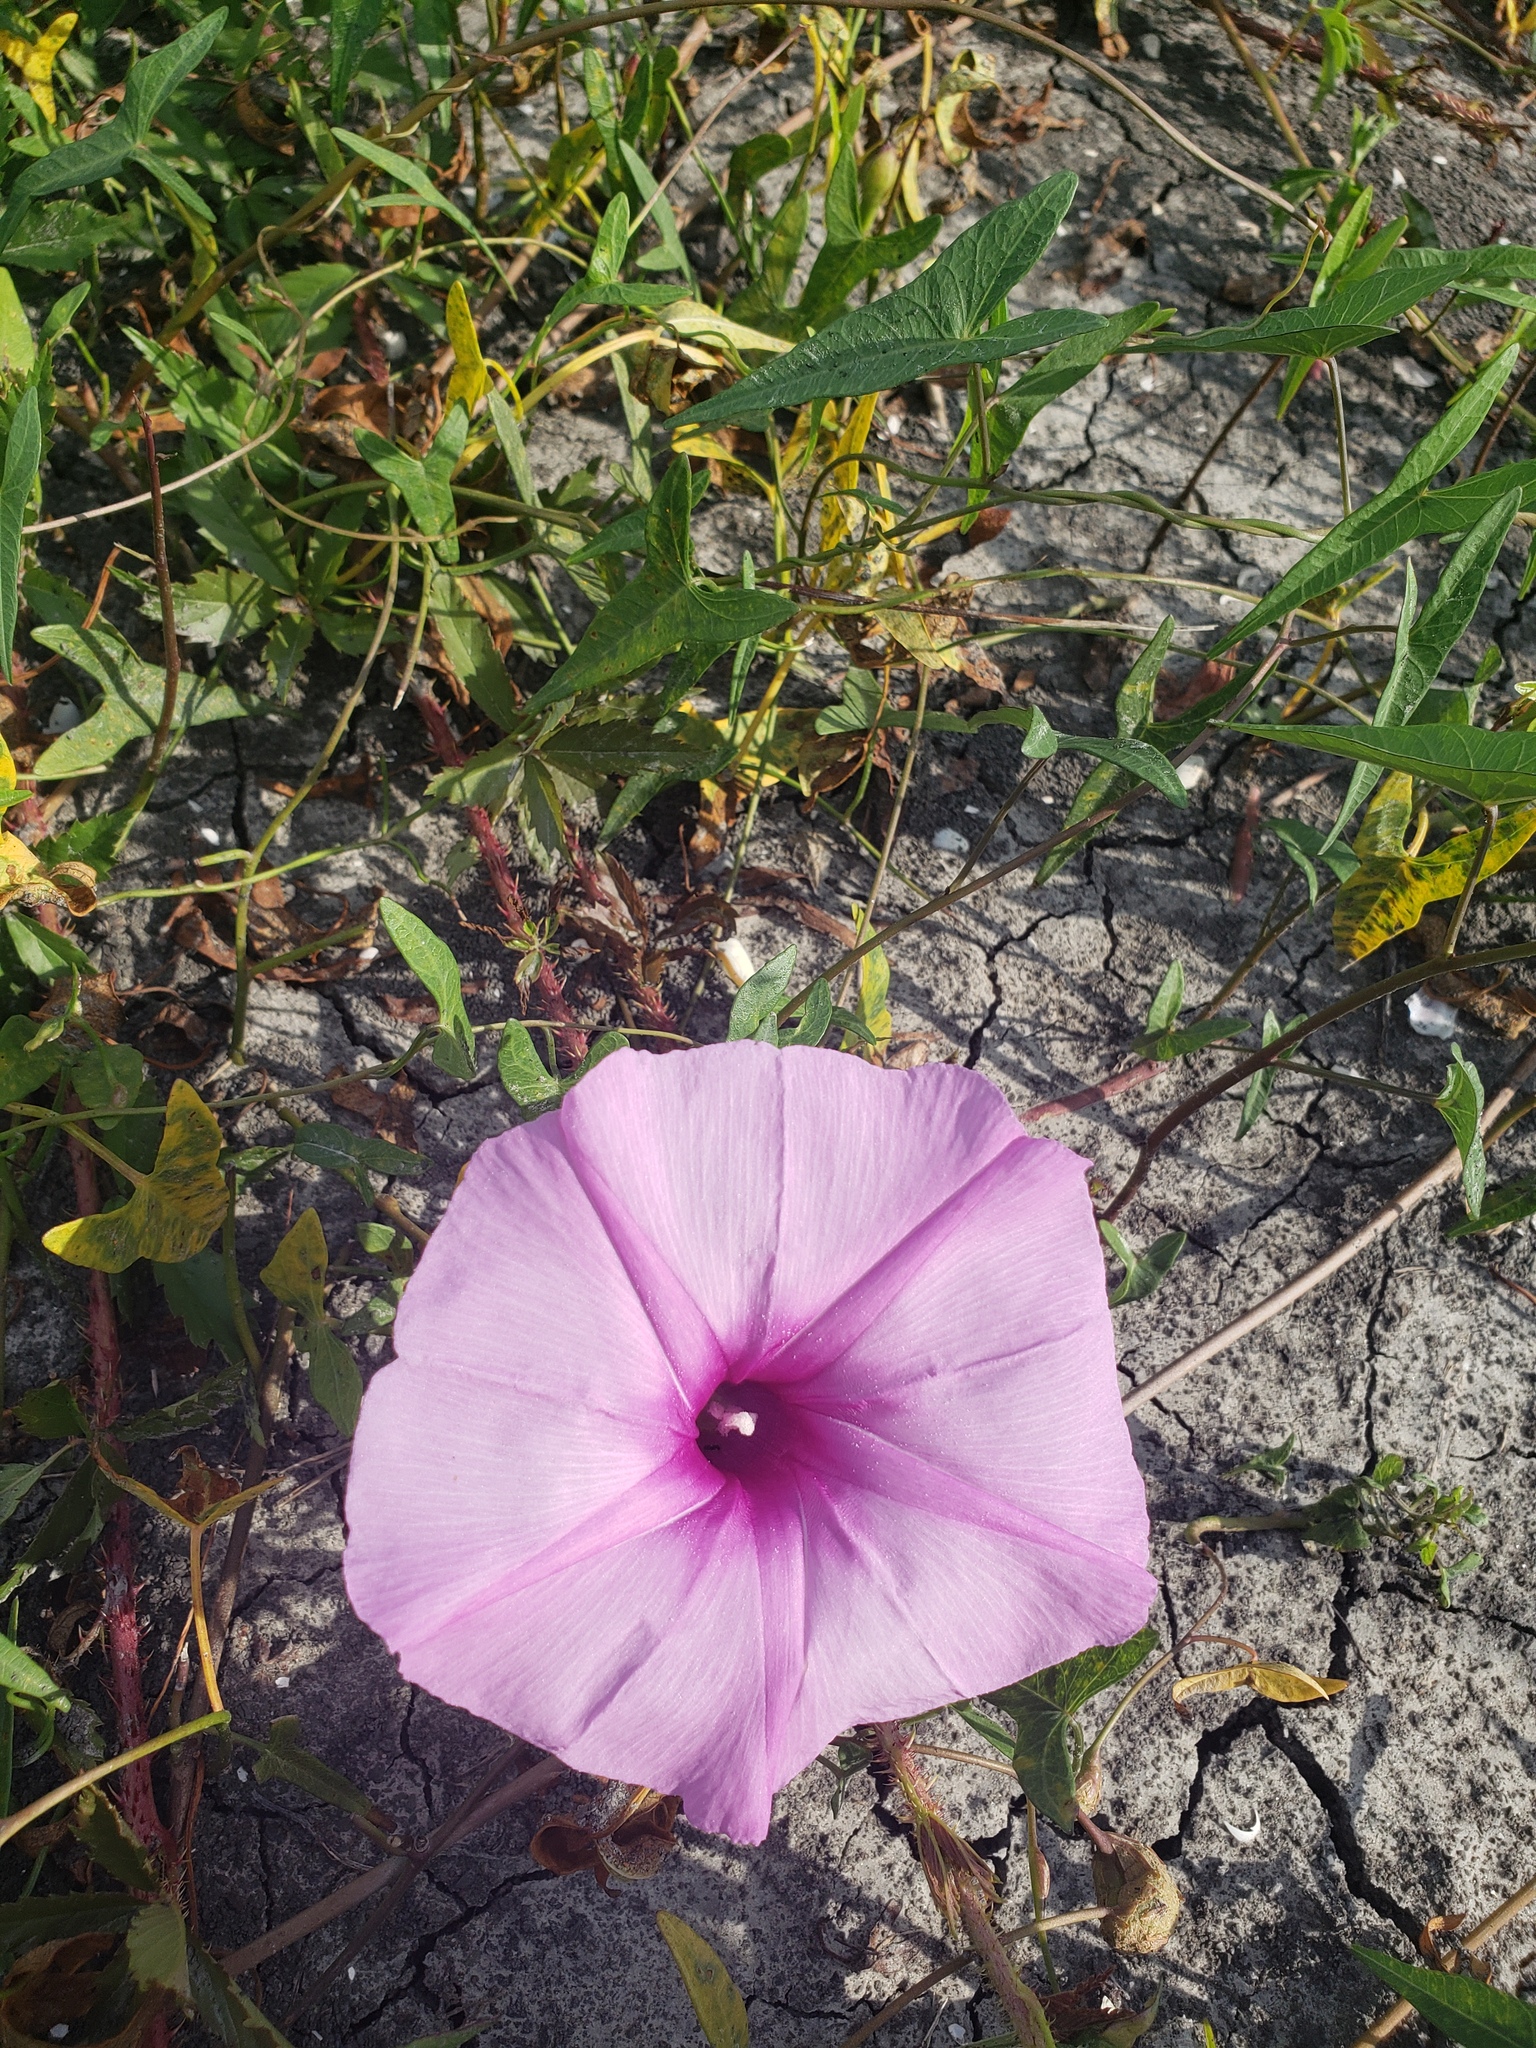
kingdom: Plantae
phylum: Tracheophyta
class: Magnoliopsida
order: Solanales
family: Convolvulaceae
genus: Ipomoea
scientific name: Ipomoea sagittata
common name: Saltmarsh morning glory
